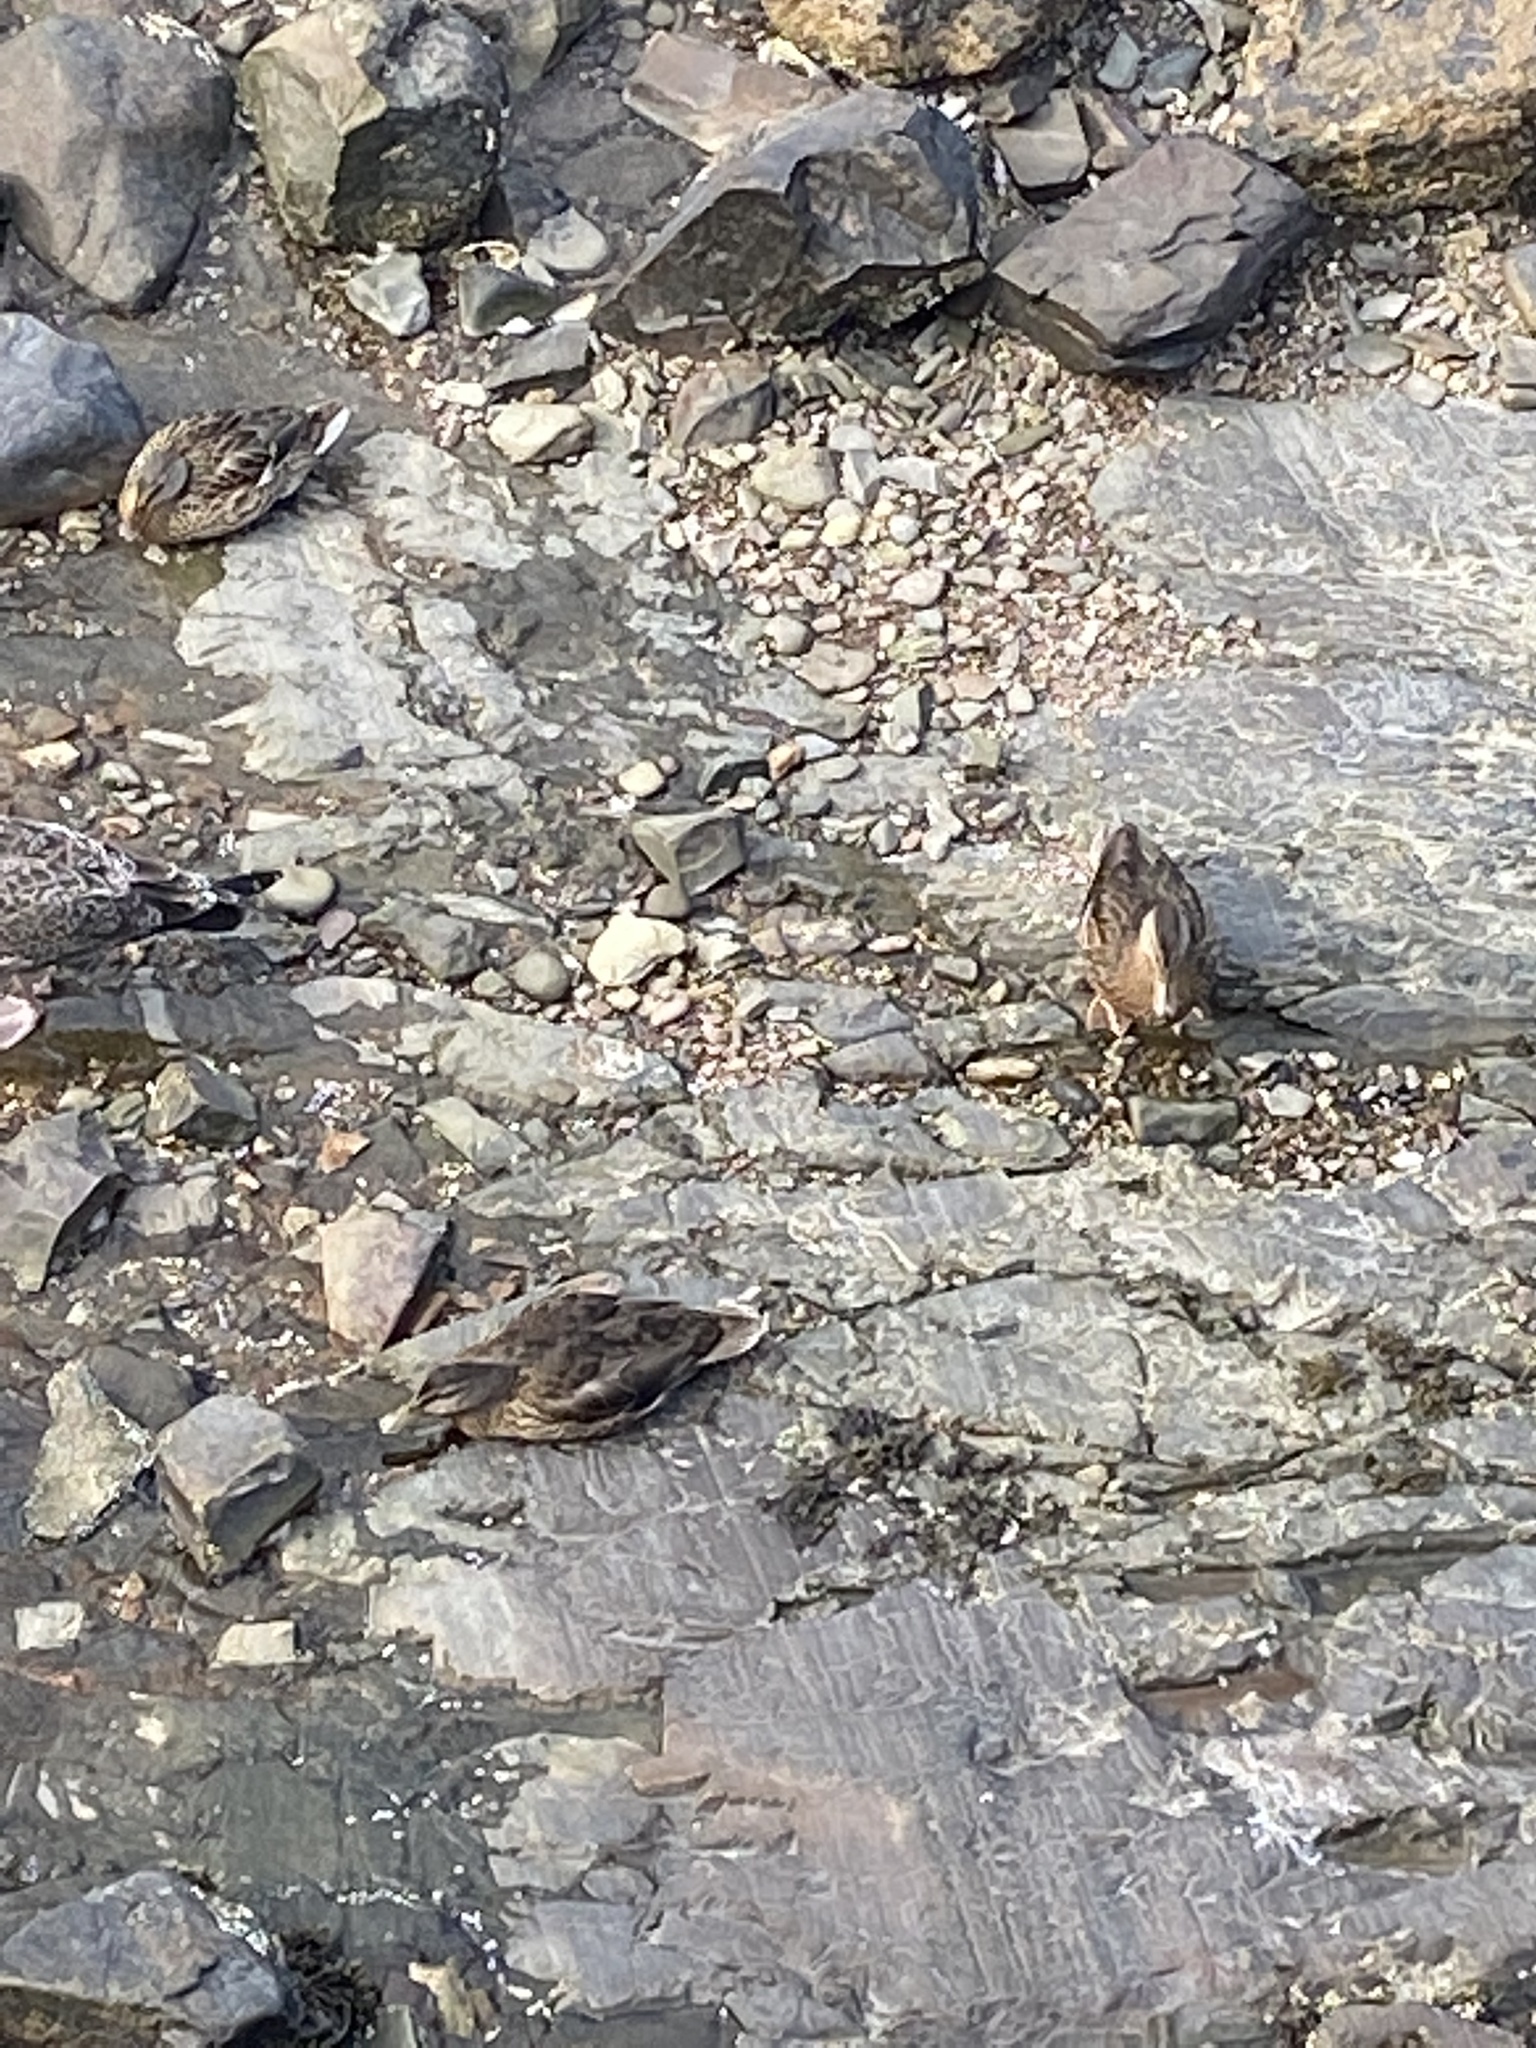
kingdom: Animalia
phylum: Chordata
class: Aves
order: Anseriformes
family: Anatidae
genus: Anas
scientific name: Anas platyrhynchos
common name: Mallard
